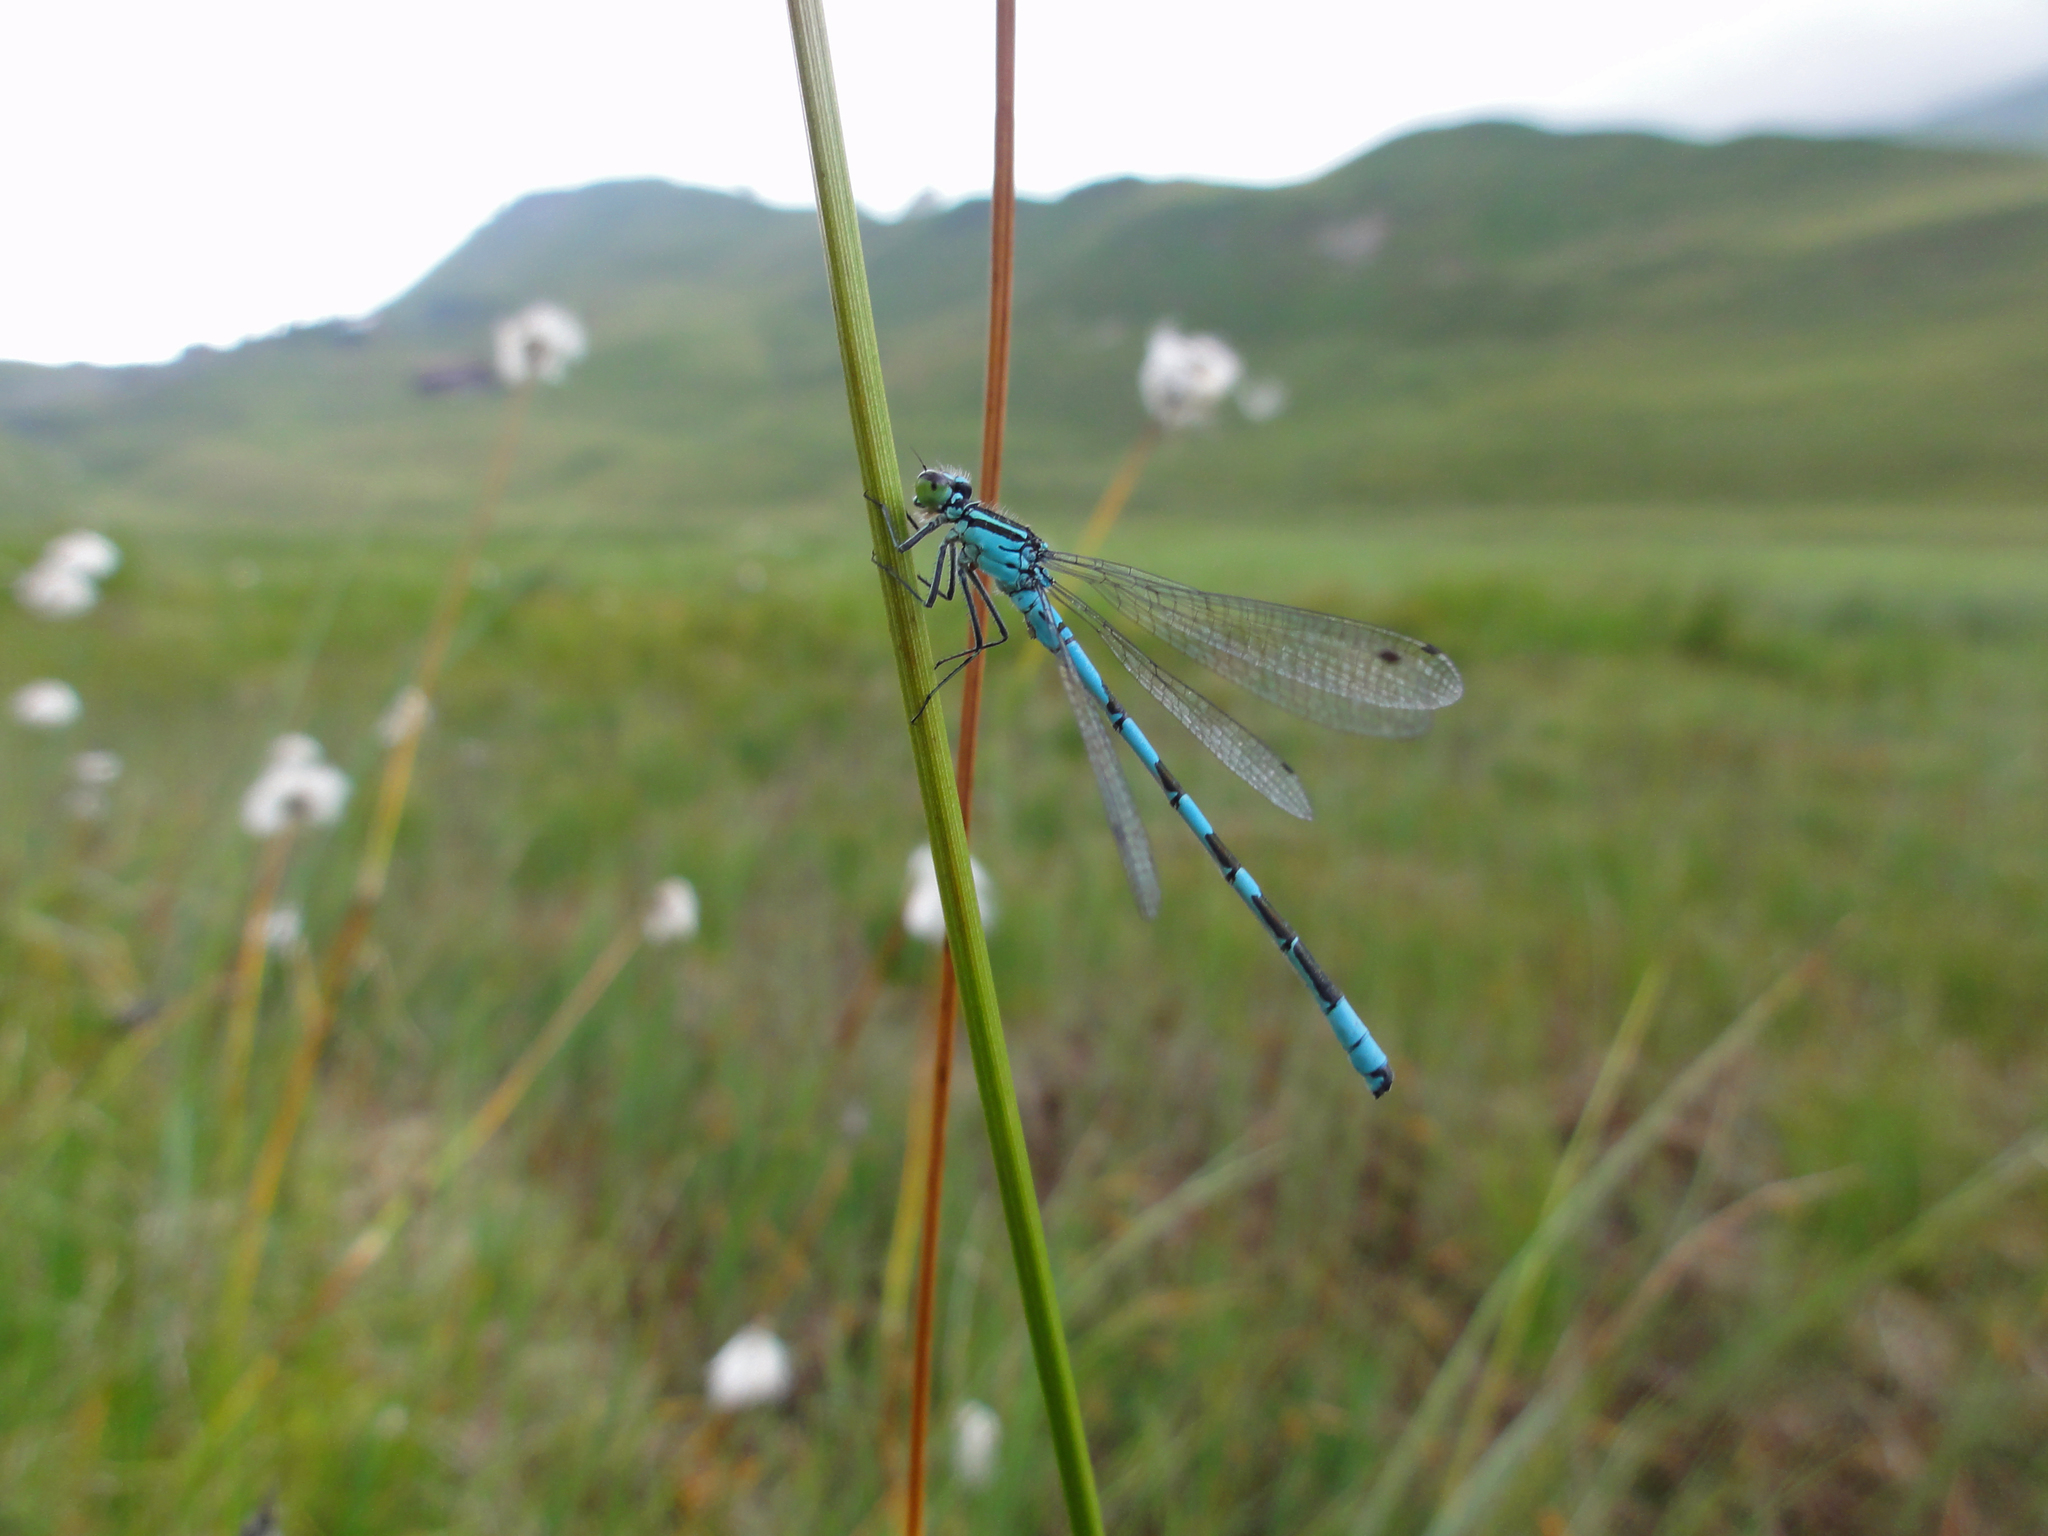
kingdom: Animalia
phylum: Arthropoda
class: Insecta
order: Odonata
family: Coenagrionidae
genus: Coenagrion
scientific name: Coenagrion hastulatum
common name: Spearhead bluet
